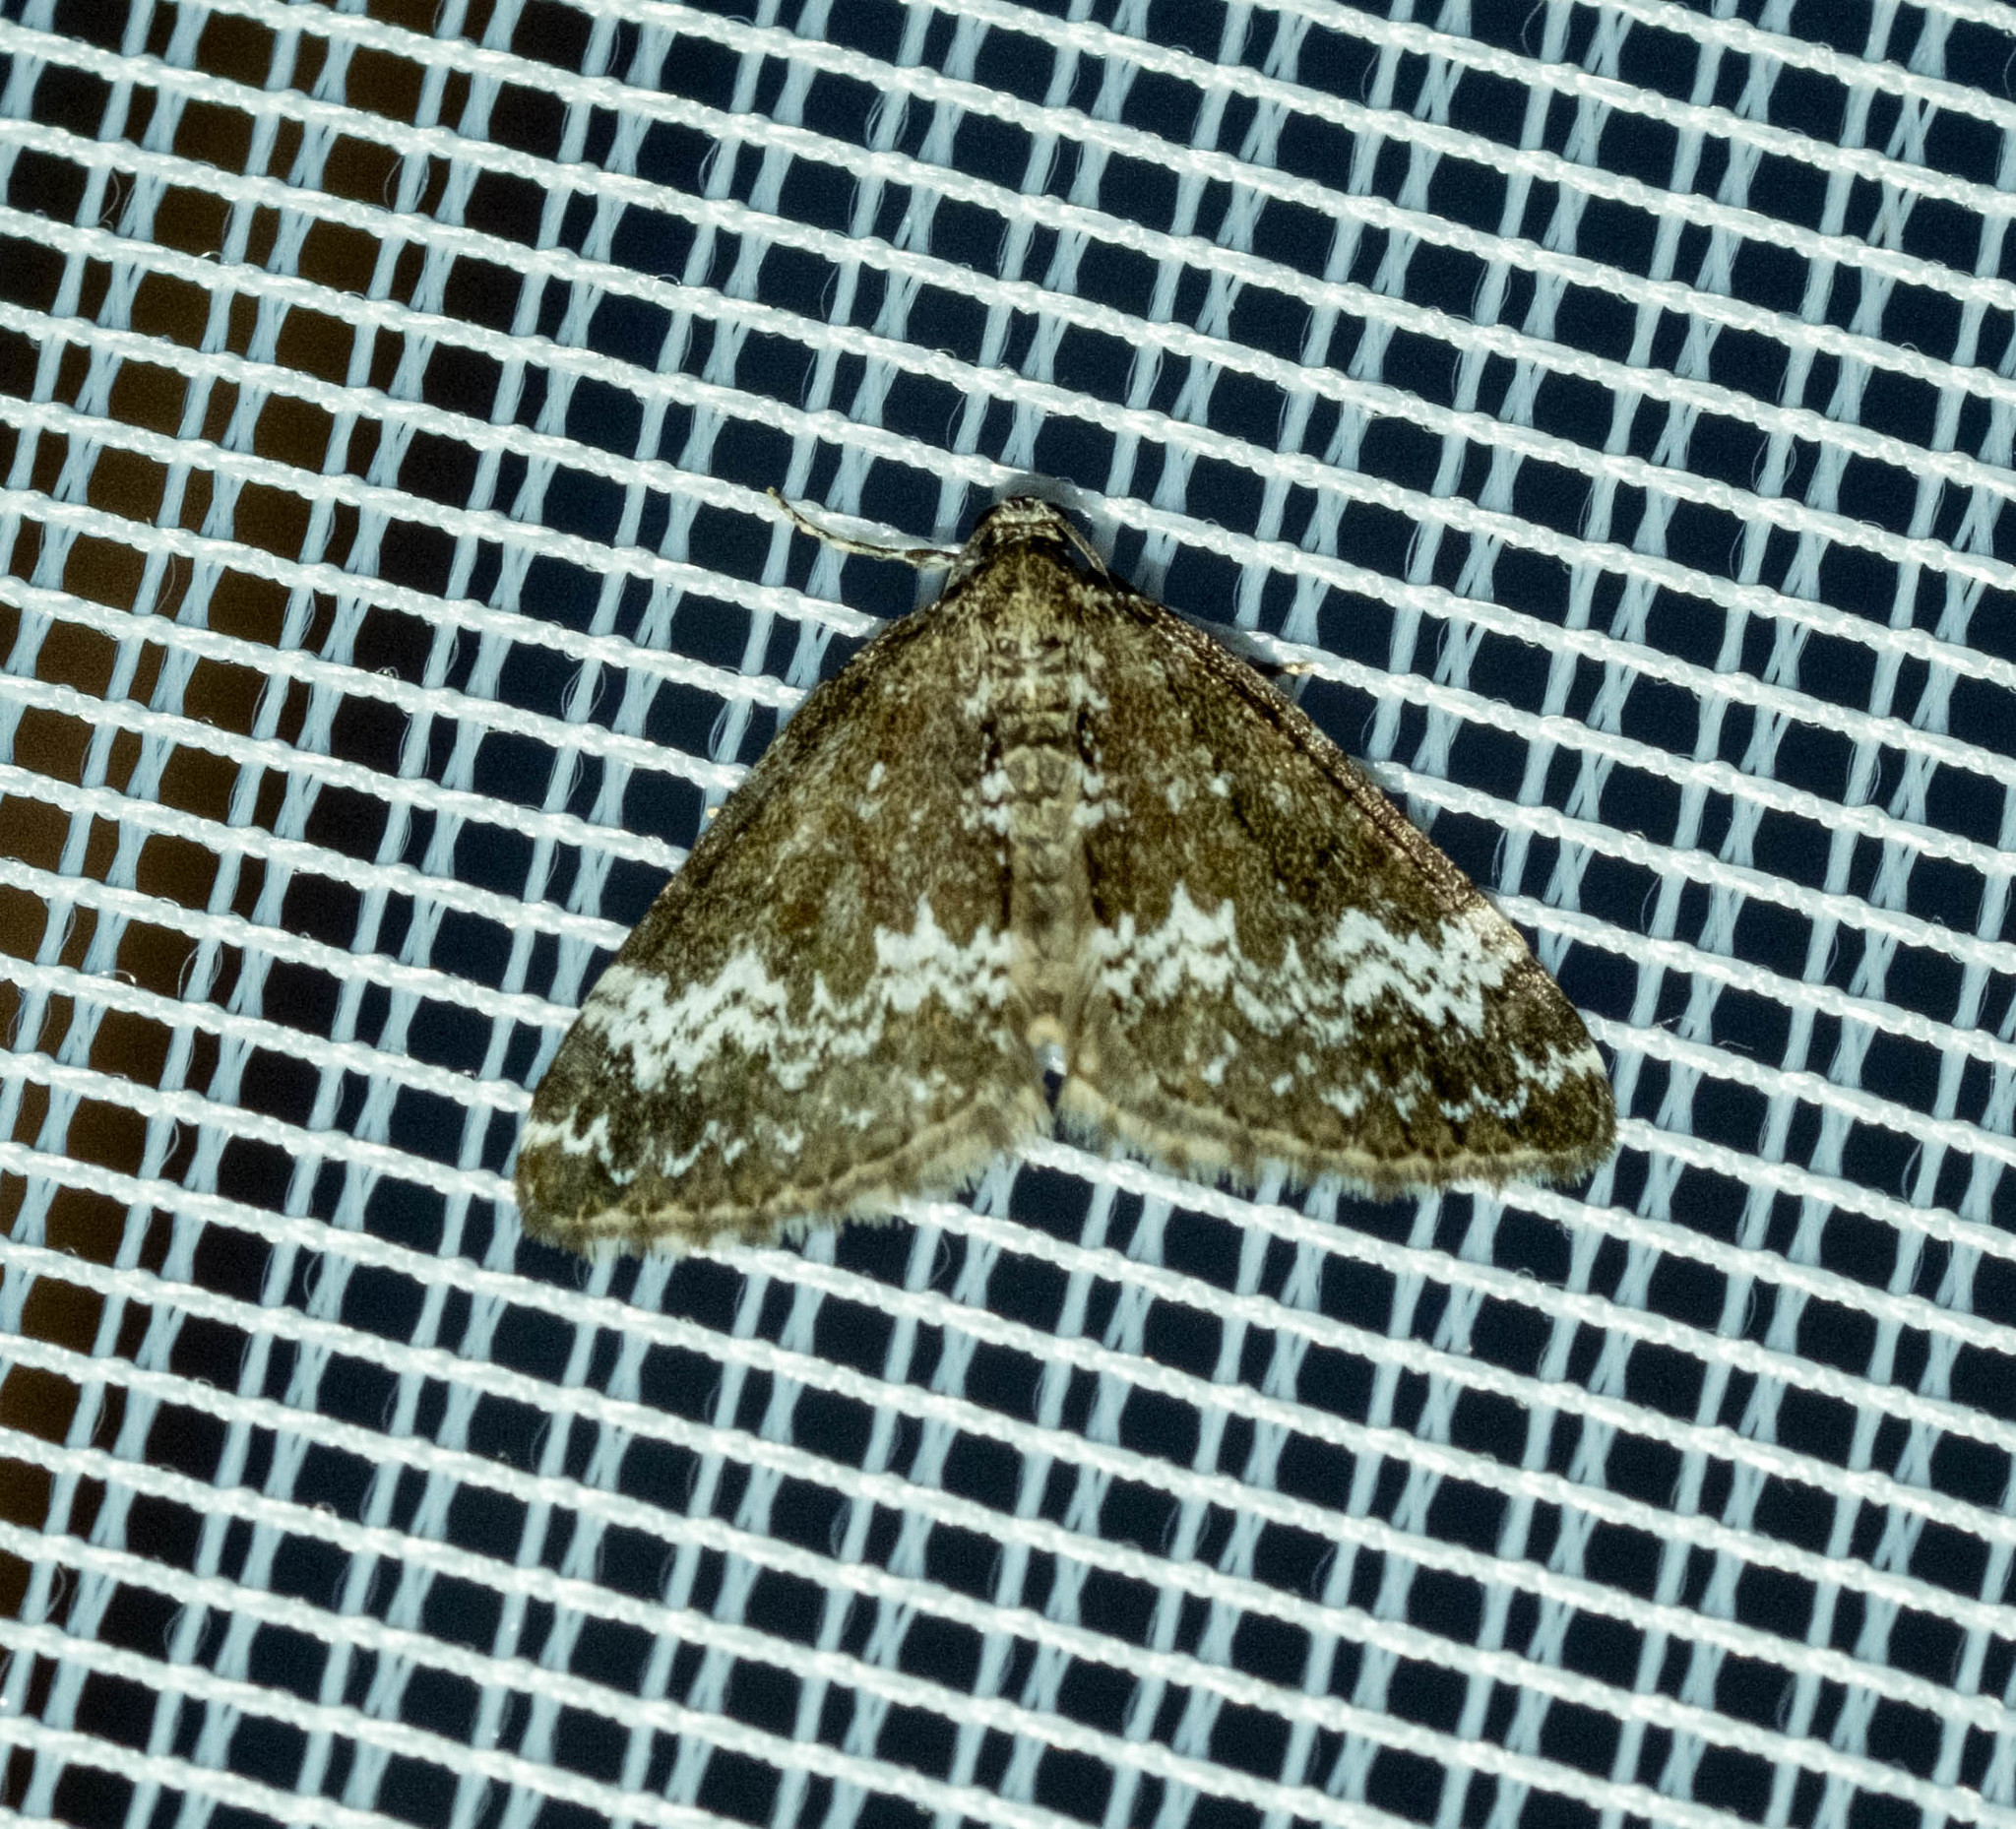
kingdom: Animalia
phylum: Arthropoda
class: Insecta
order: Lepidoptera
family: Geometridae
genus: Perizoma
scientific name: Perizoma alchemillata
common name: Small rivulet
